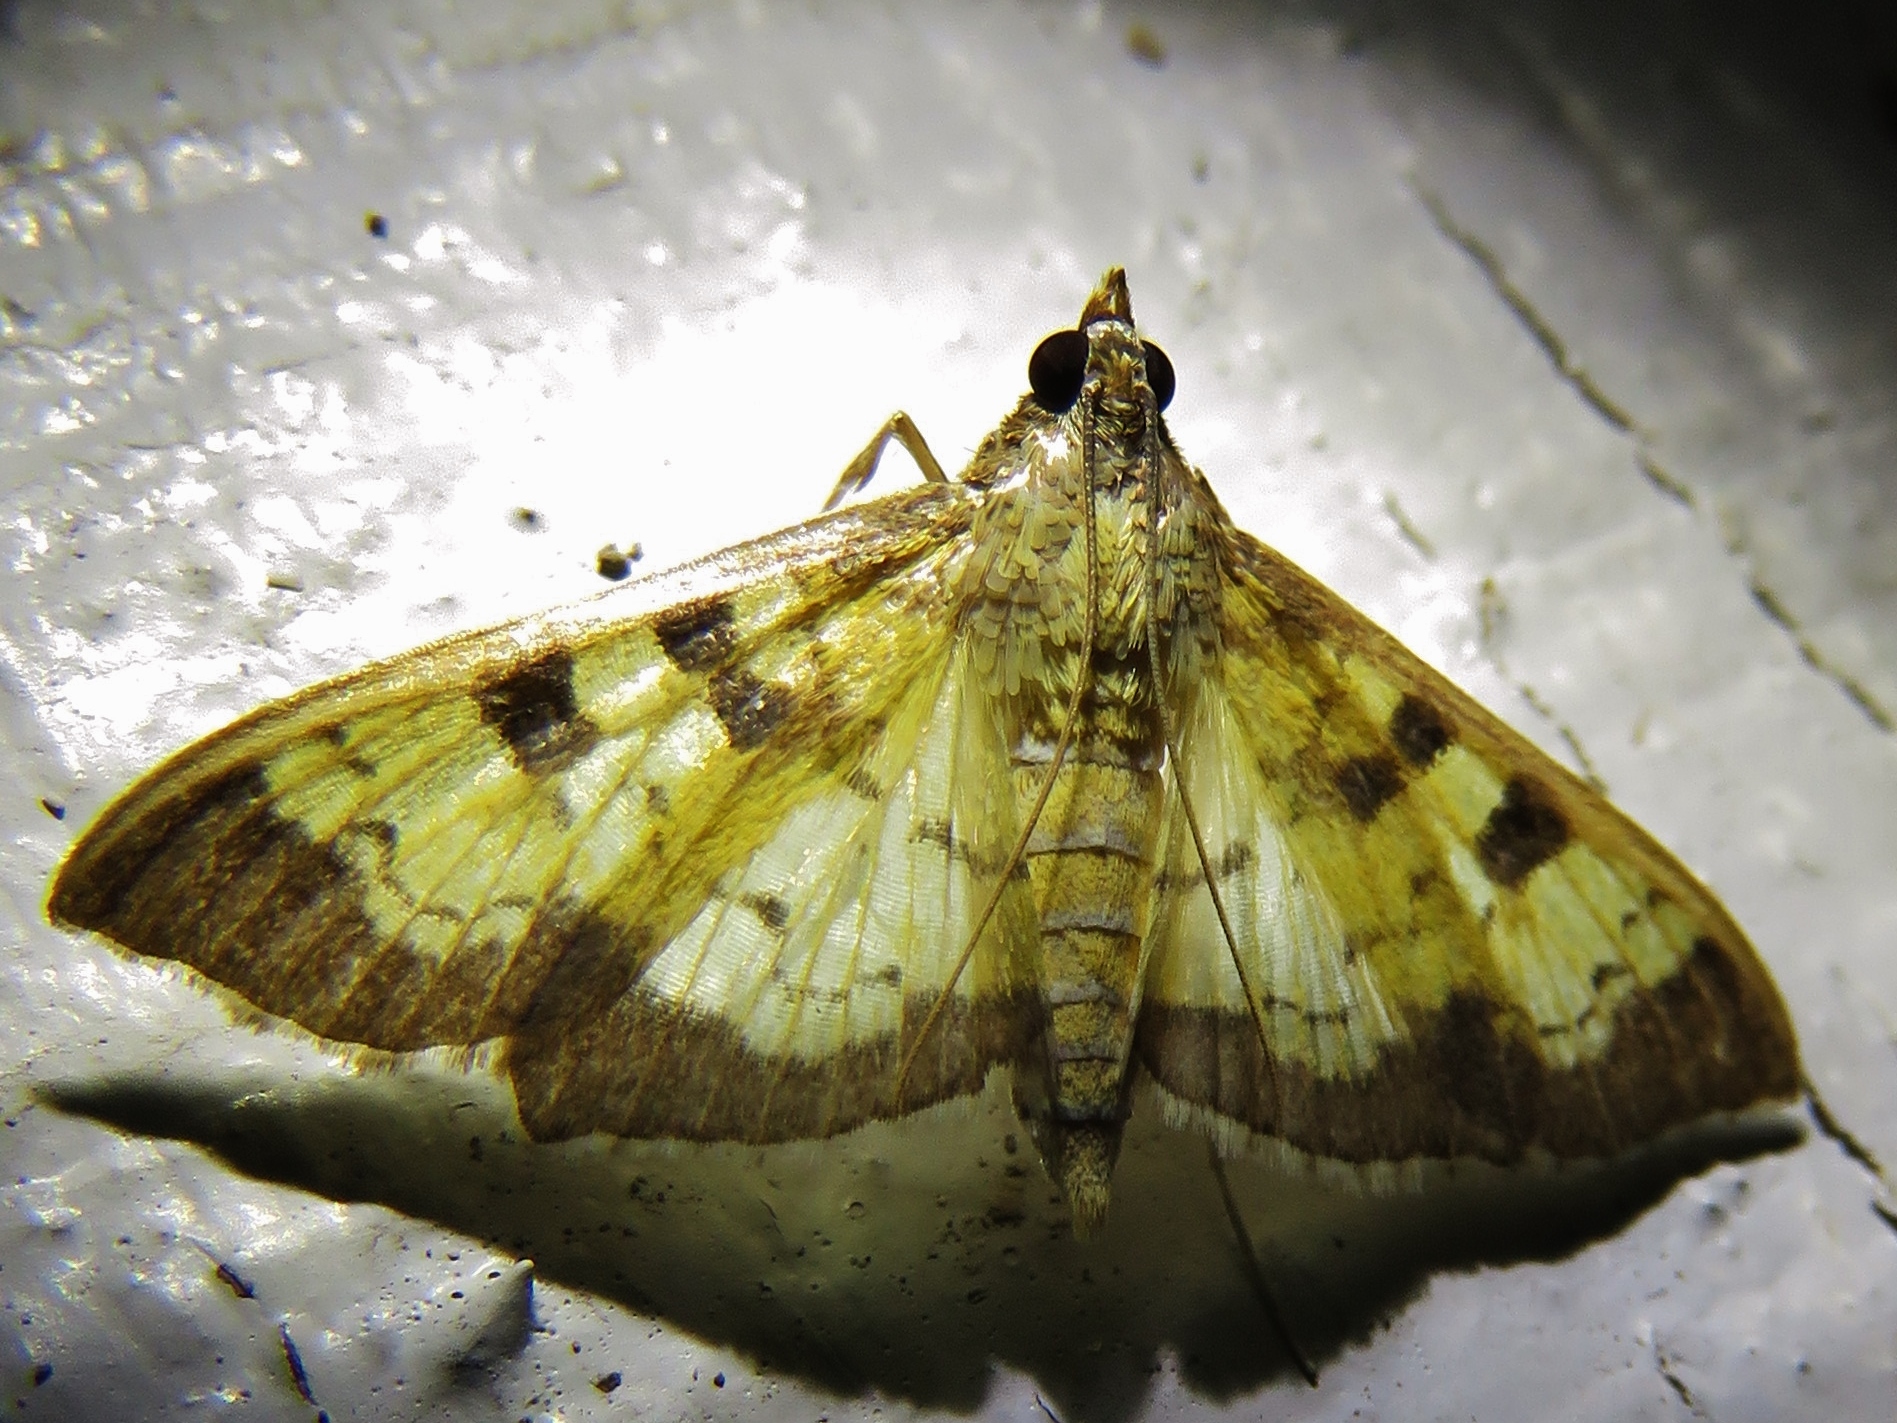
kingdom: Animalia
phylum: Arthropoda
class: Insecta
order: Lepidoptera
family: Crambidae
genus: Cryptographis
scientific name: Cryptographis elealis
